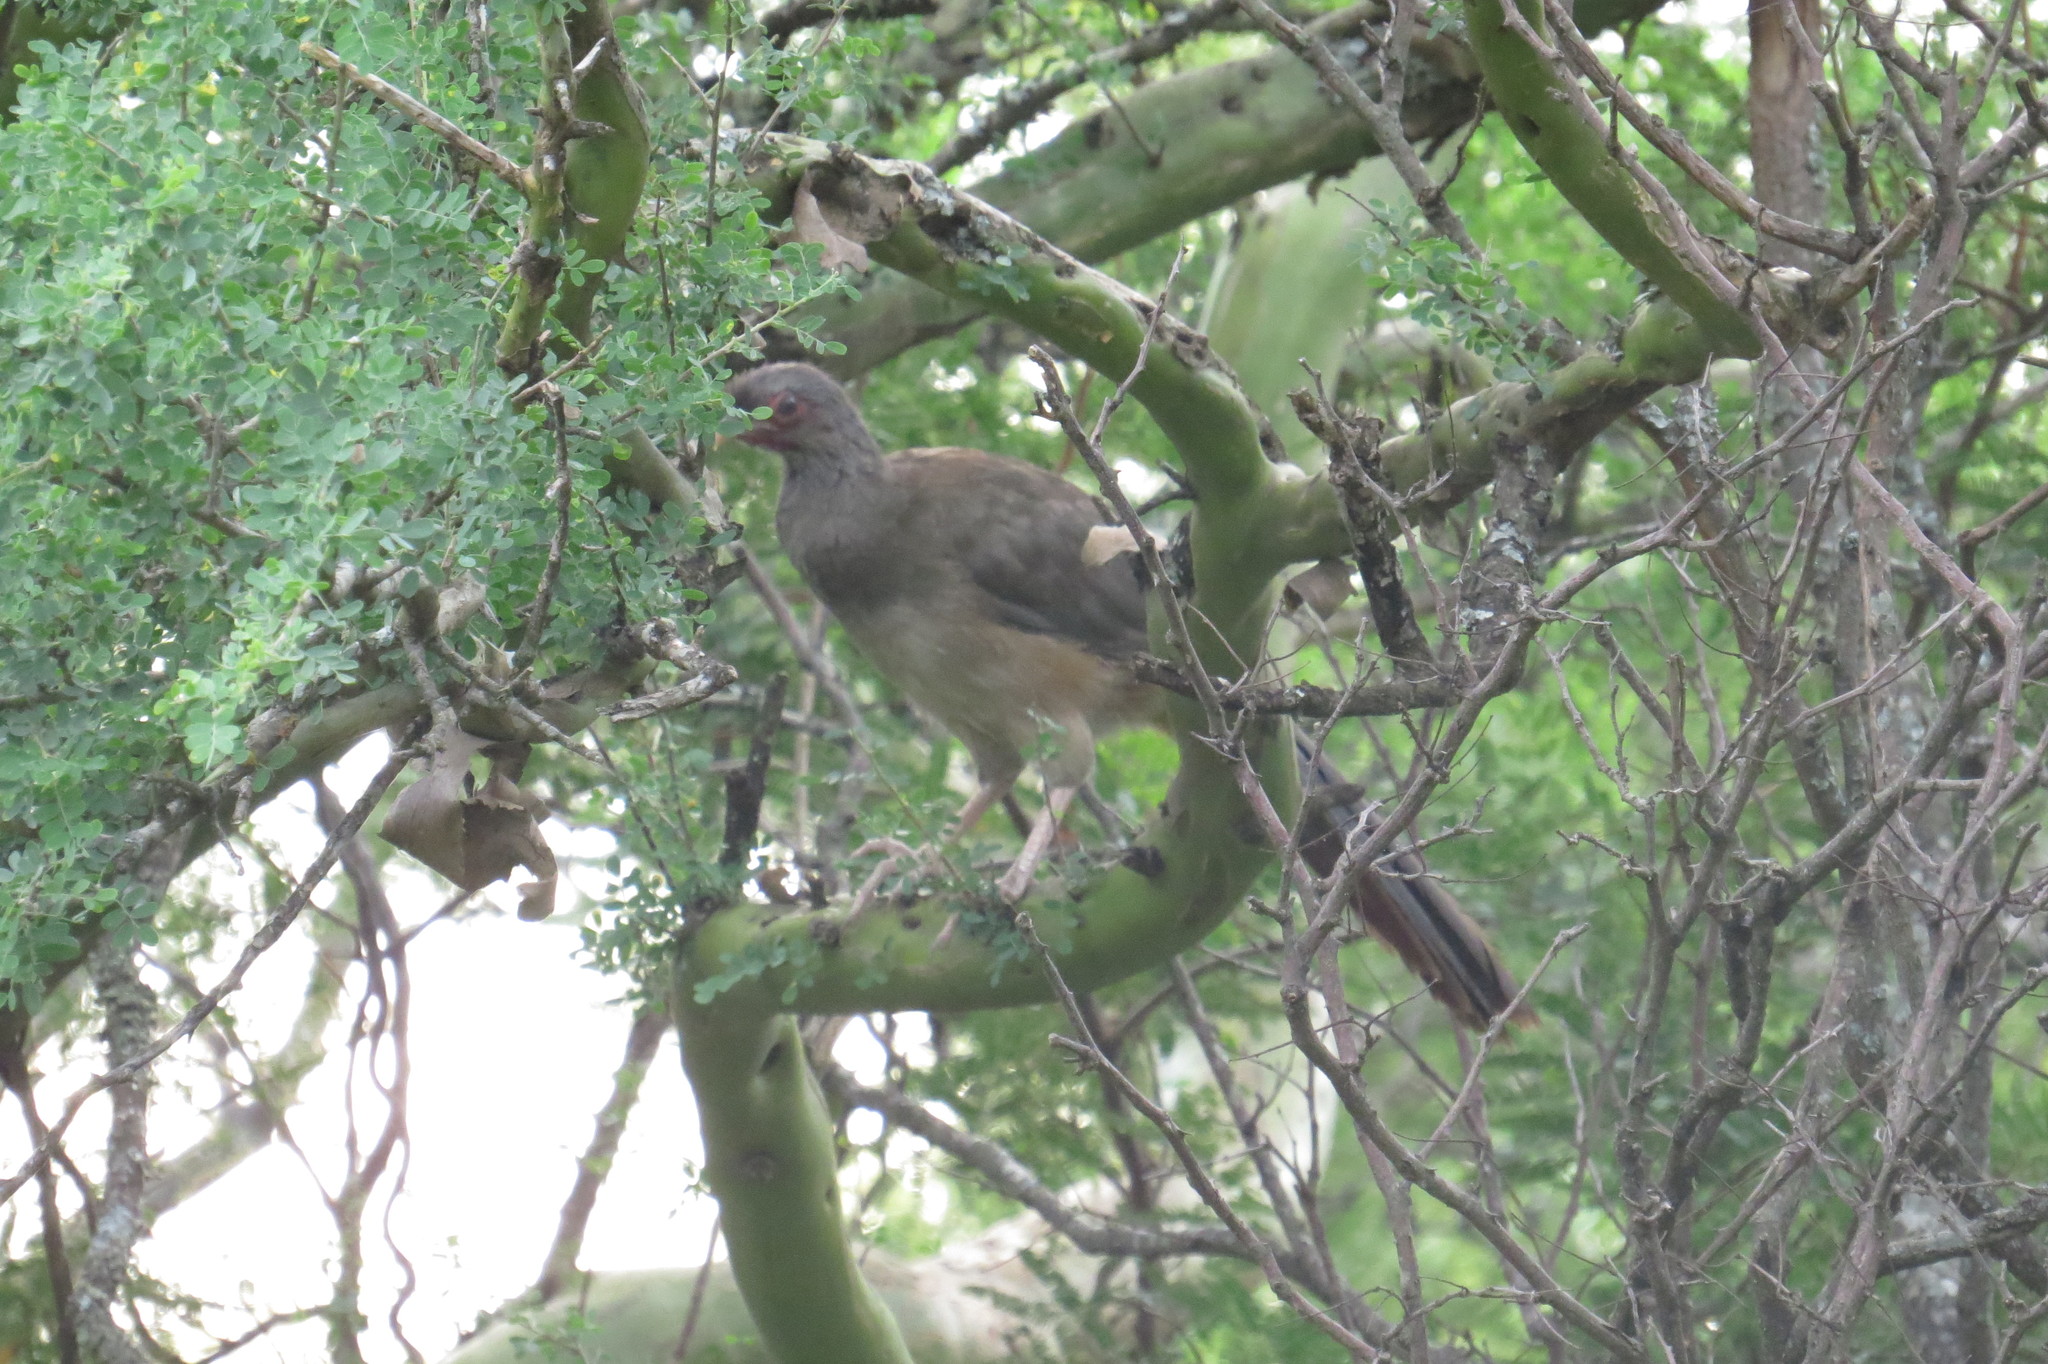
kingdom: Animalia
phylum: Chordata
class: Aves
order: Galliformes
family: Cracidae
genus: Ortalis
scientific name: Ortalis canicollis
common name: Chaco chachalaca
